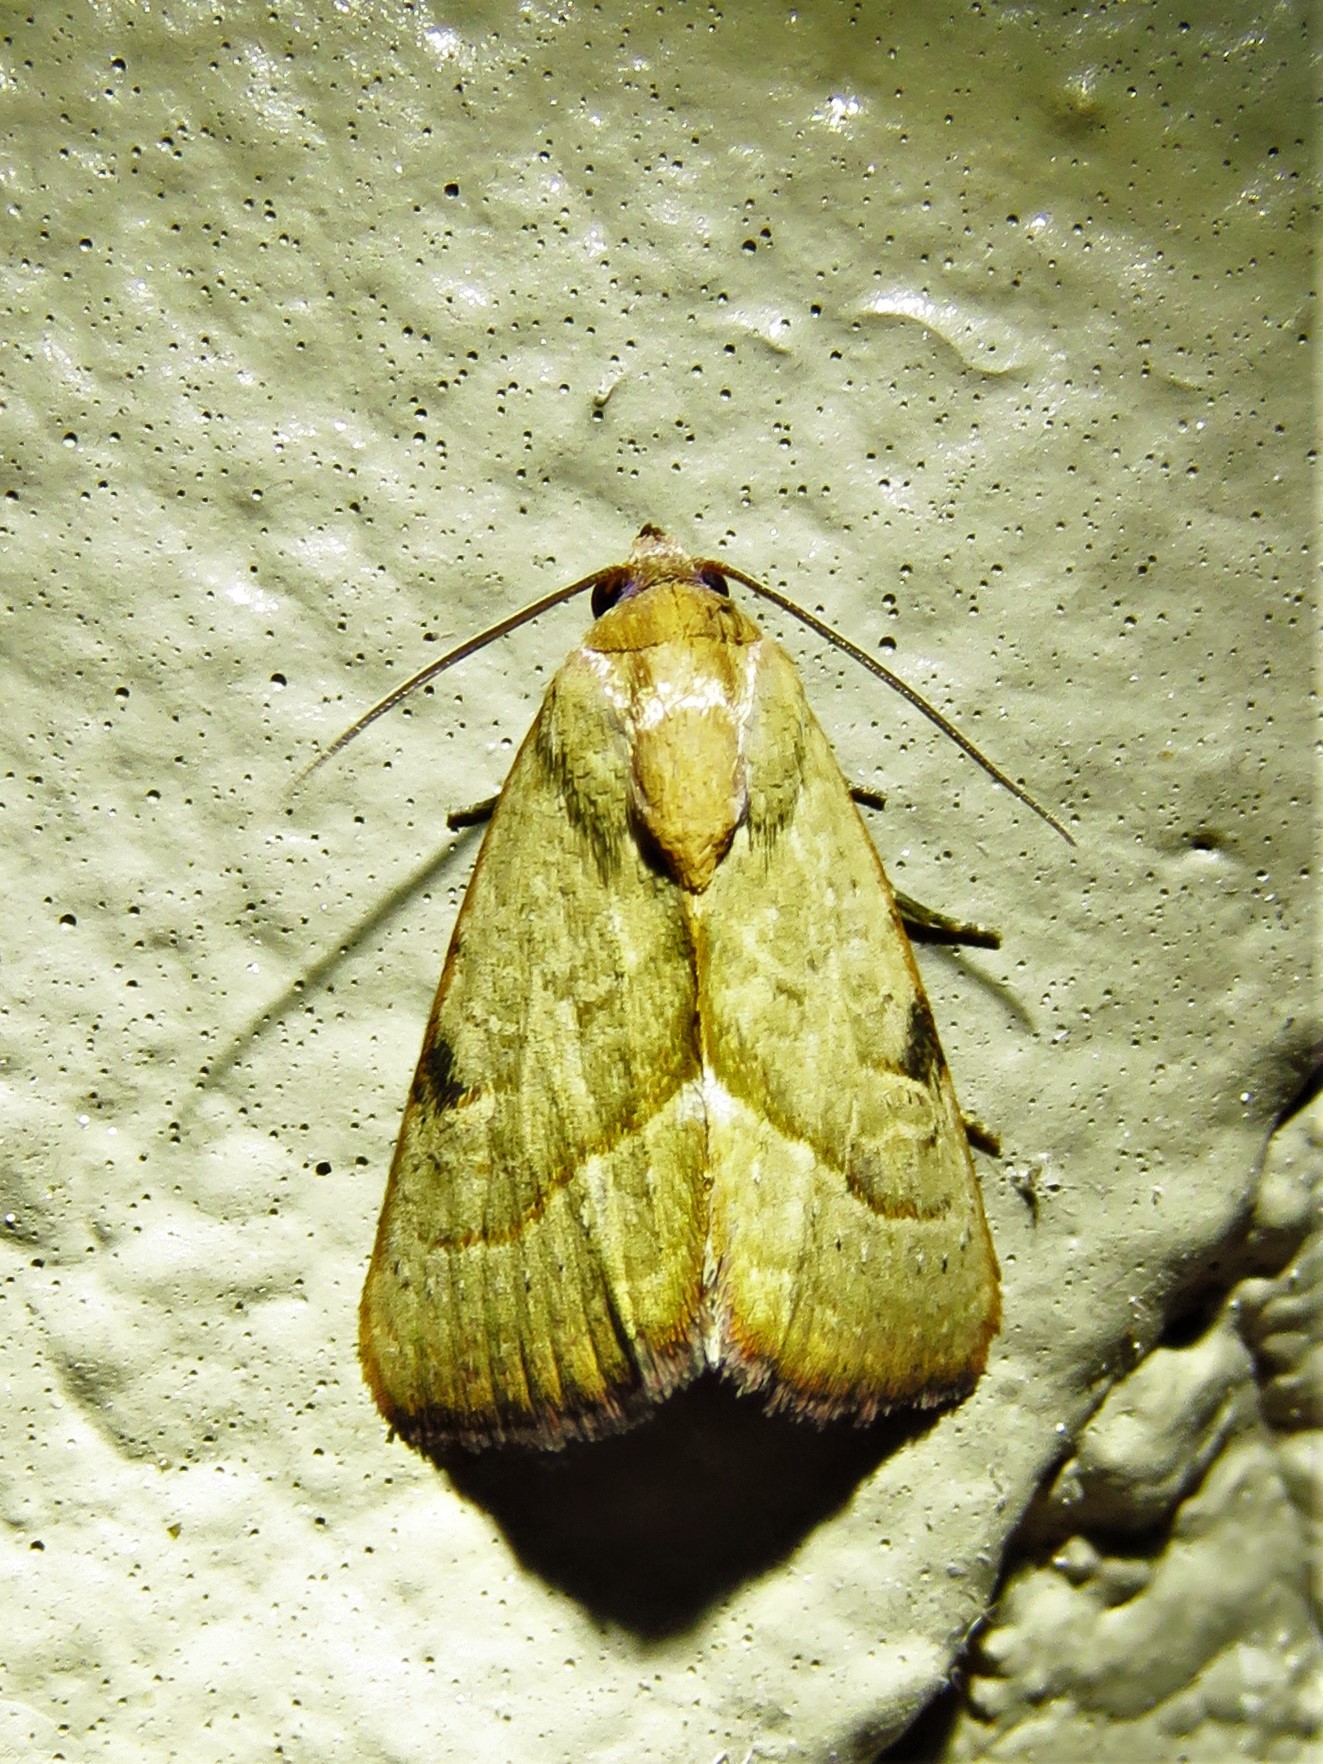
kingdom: Animalia
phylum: Arthropoda
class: Insecta
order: Lepidoptera
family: Noctuidae
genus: Galgula
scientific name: Galgula partita
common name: Wedgeling
